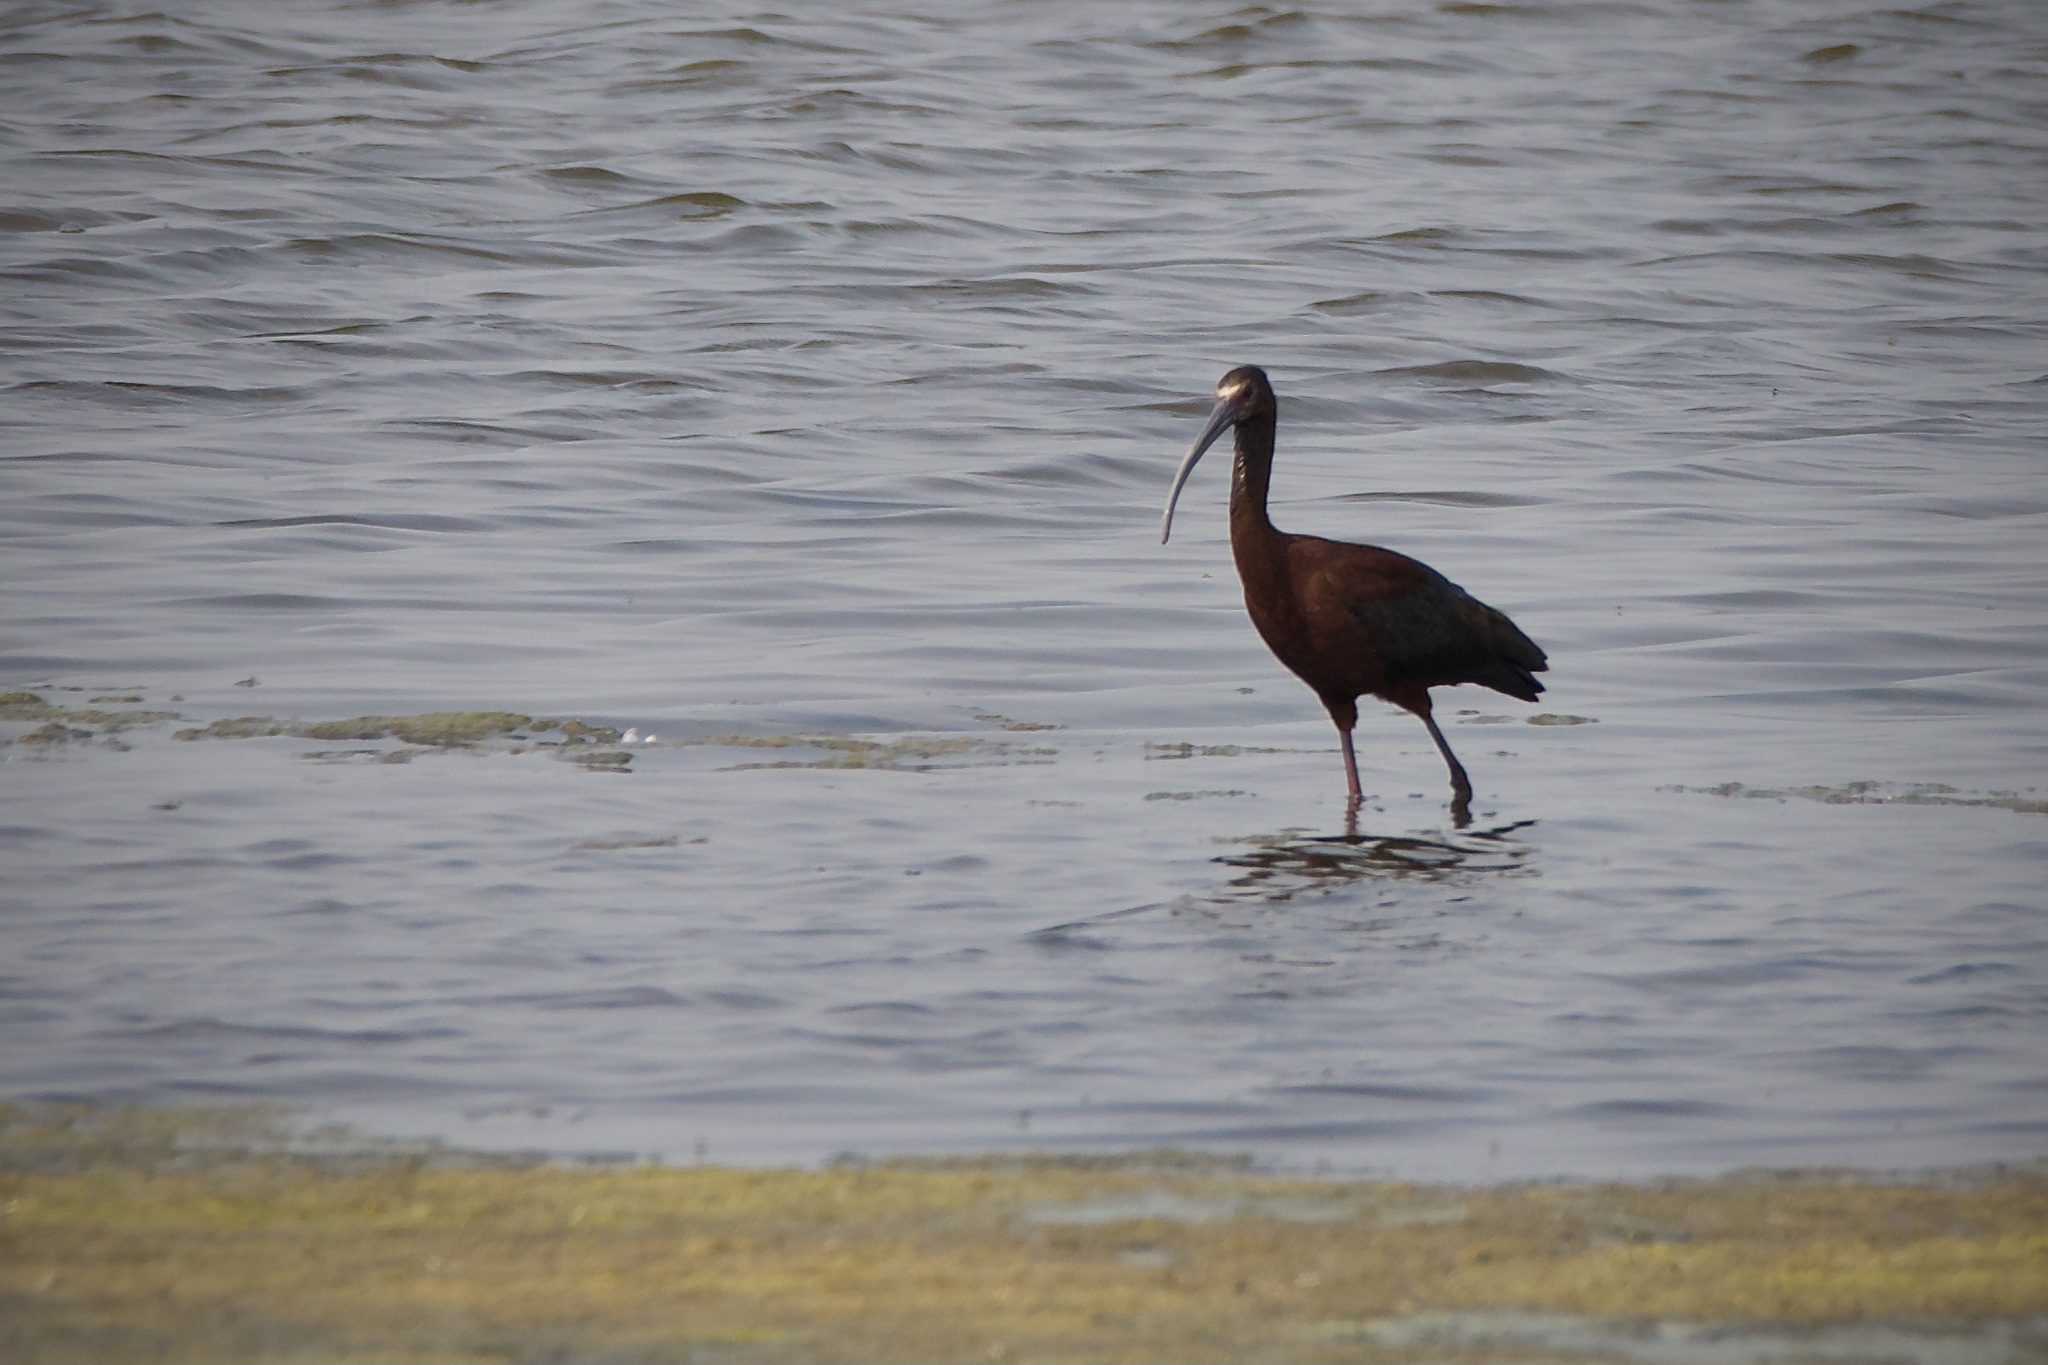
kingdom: Animalia
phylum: Chordata
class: Aves
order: Pelecaniformes
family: Threskiornithidae
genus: Plegadis
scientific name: Plegadis chihi
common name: White-faced ibis
